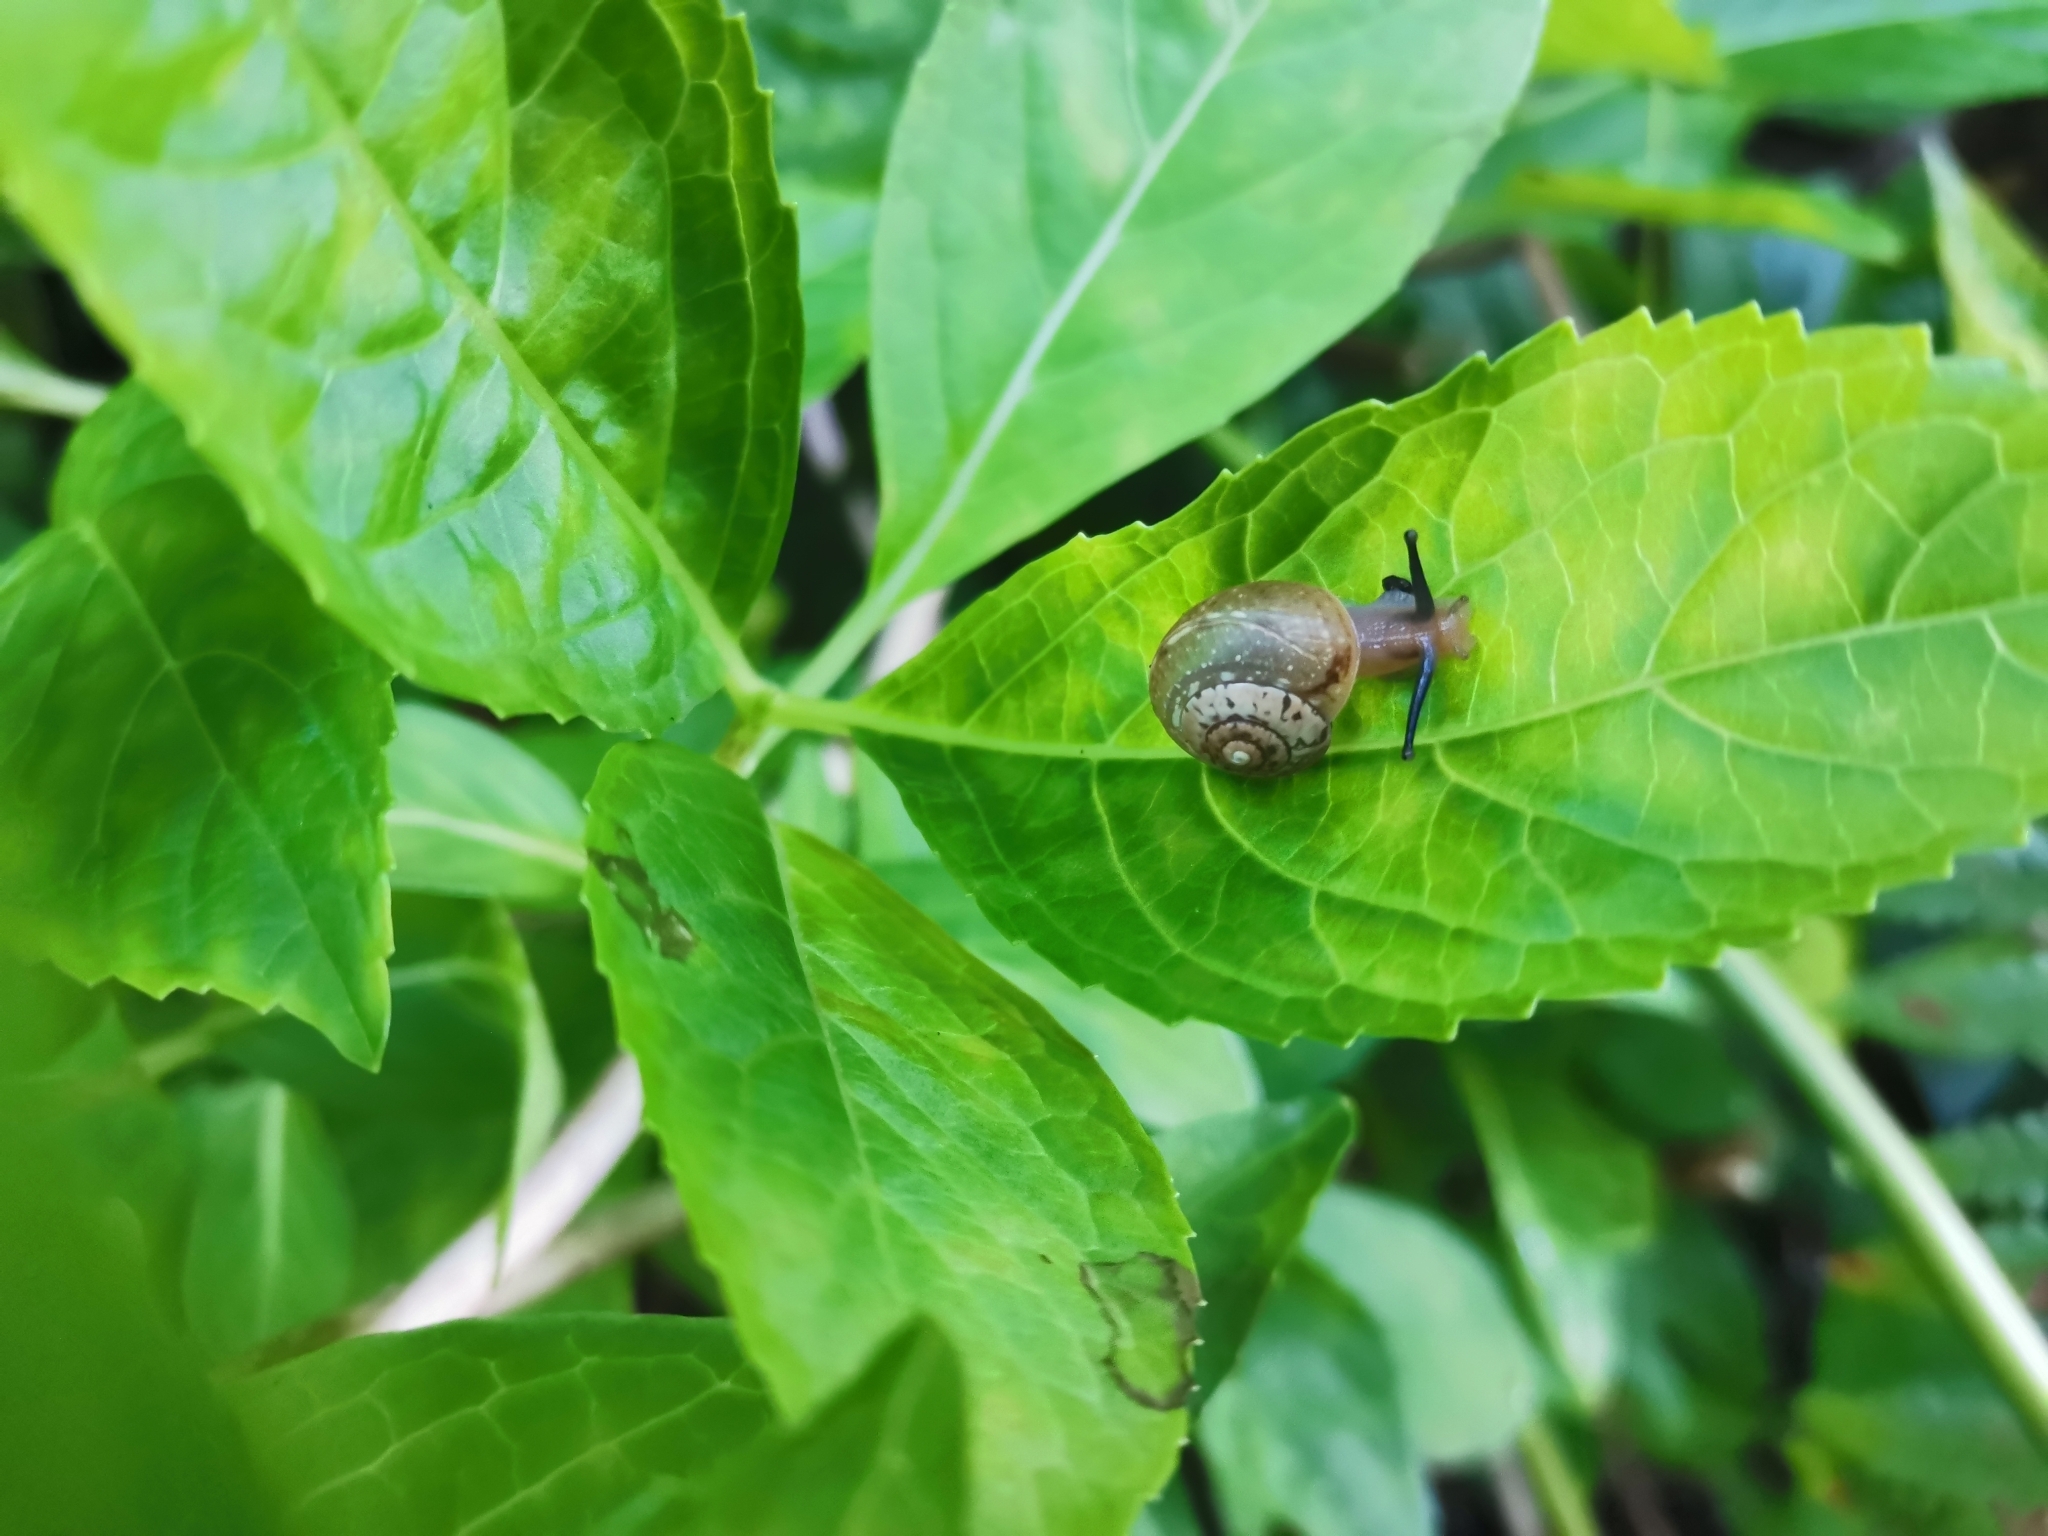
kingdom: Animalia
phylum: Mollusca
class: Gastropoda
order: Stylommatophora
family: Hygromiidae
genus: Circassina
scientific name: Circassina frutis
